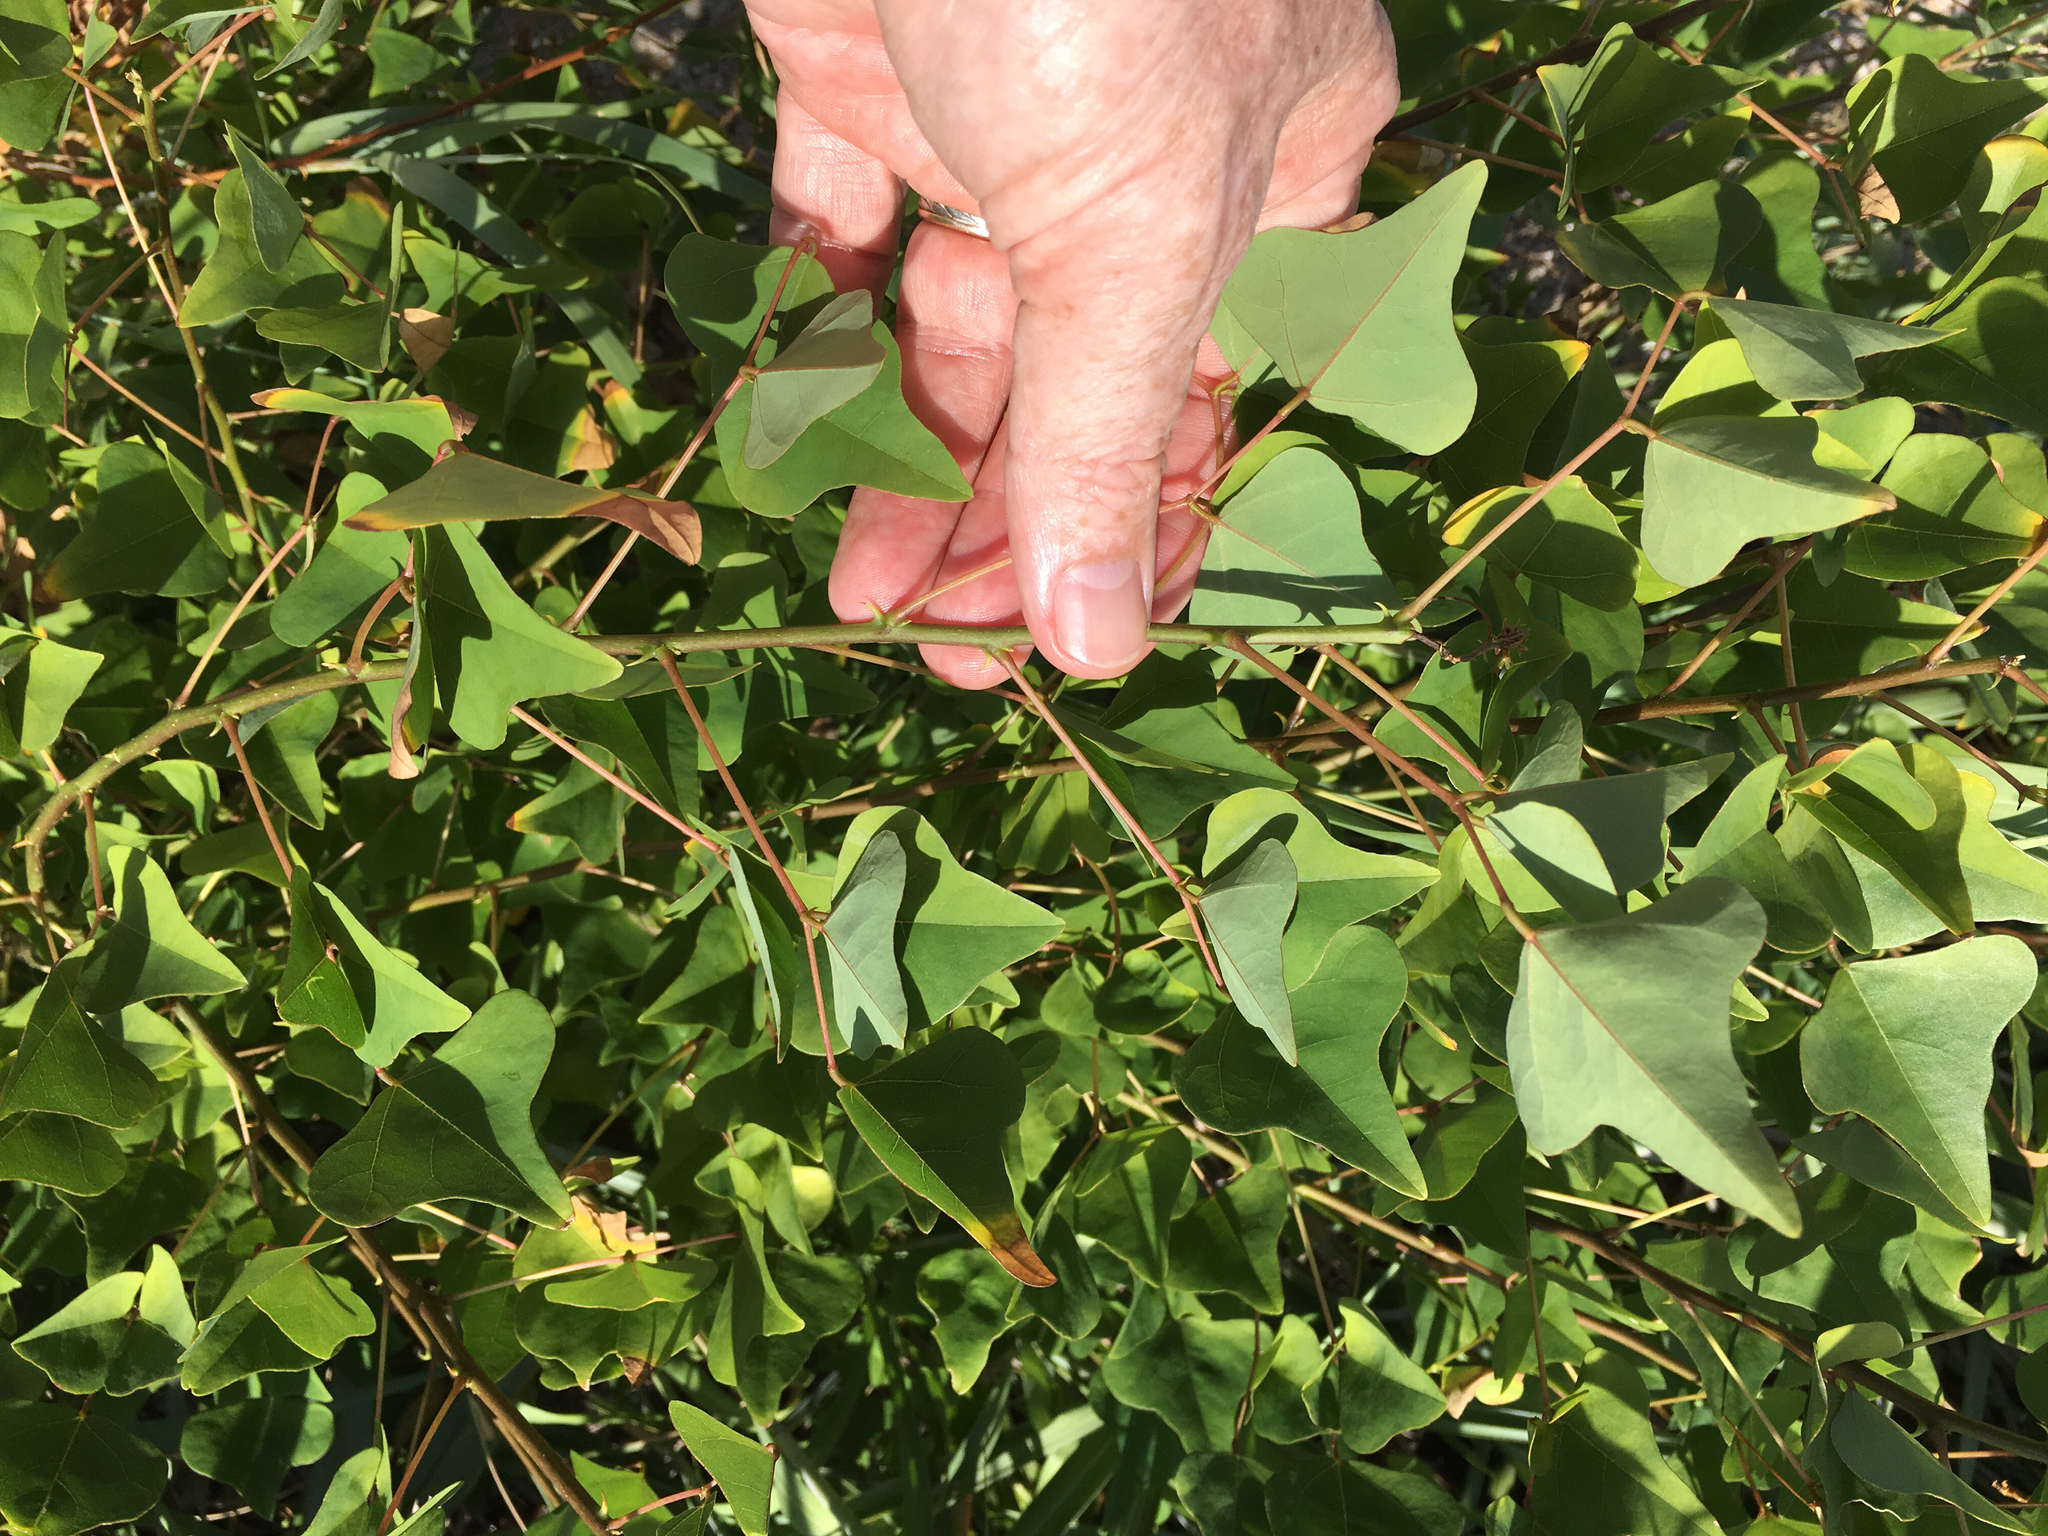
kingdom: Plantae
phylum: Tracheophyta
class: Magnoliopsida
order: Fabales
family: Fabaceae
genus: Erythrina
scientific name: Erythrina herbacea
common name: Coral-bean
